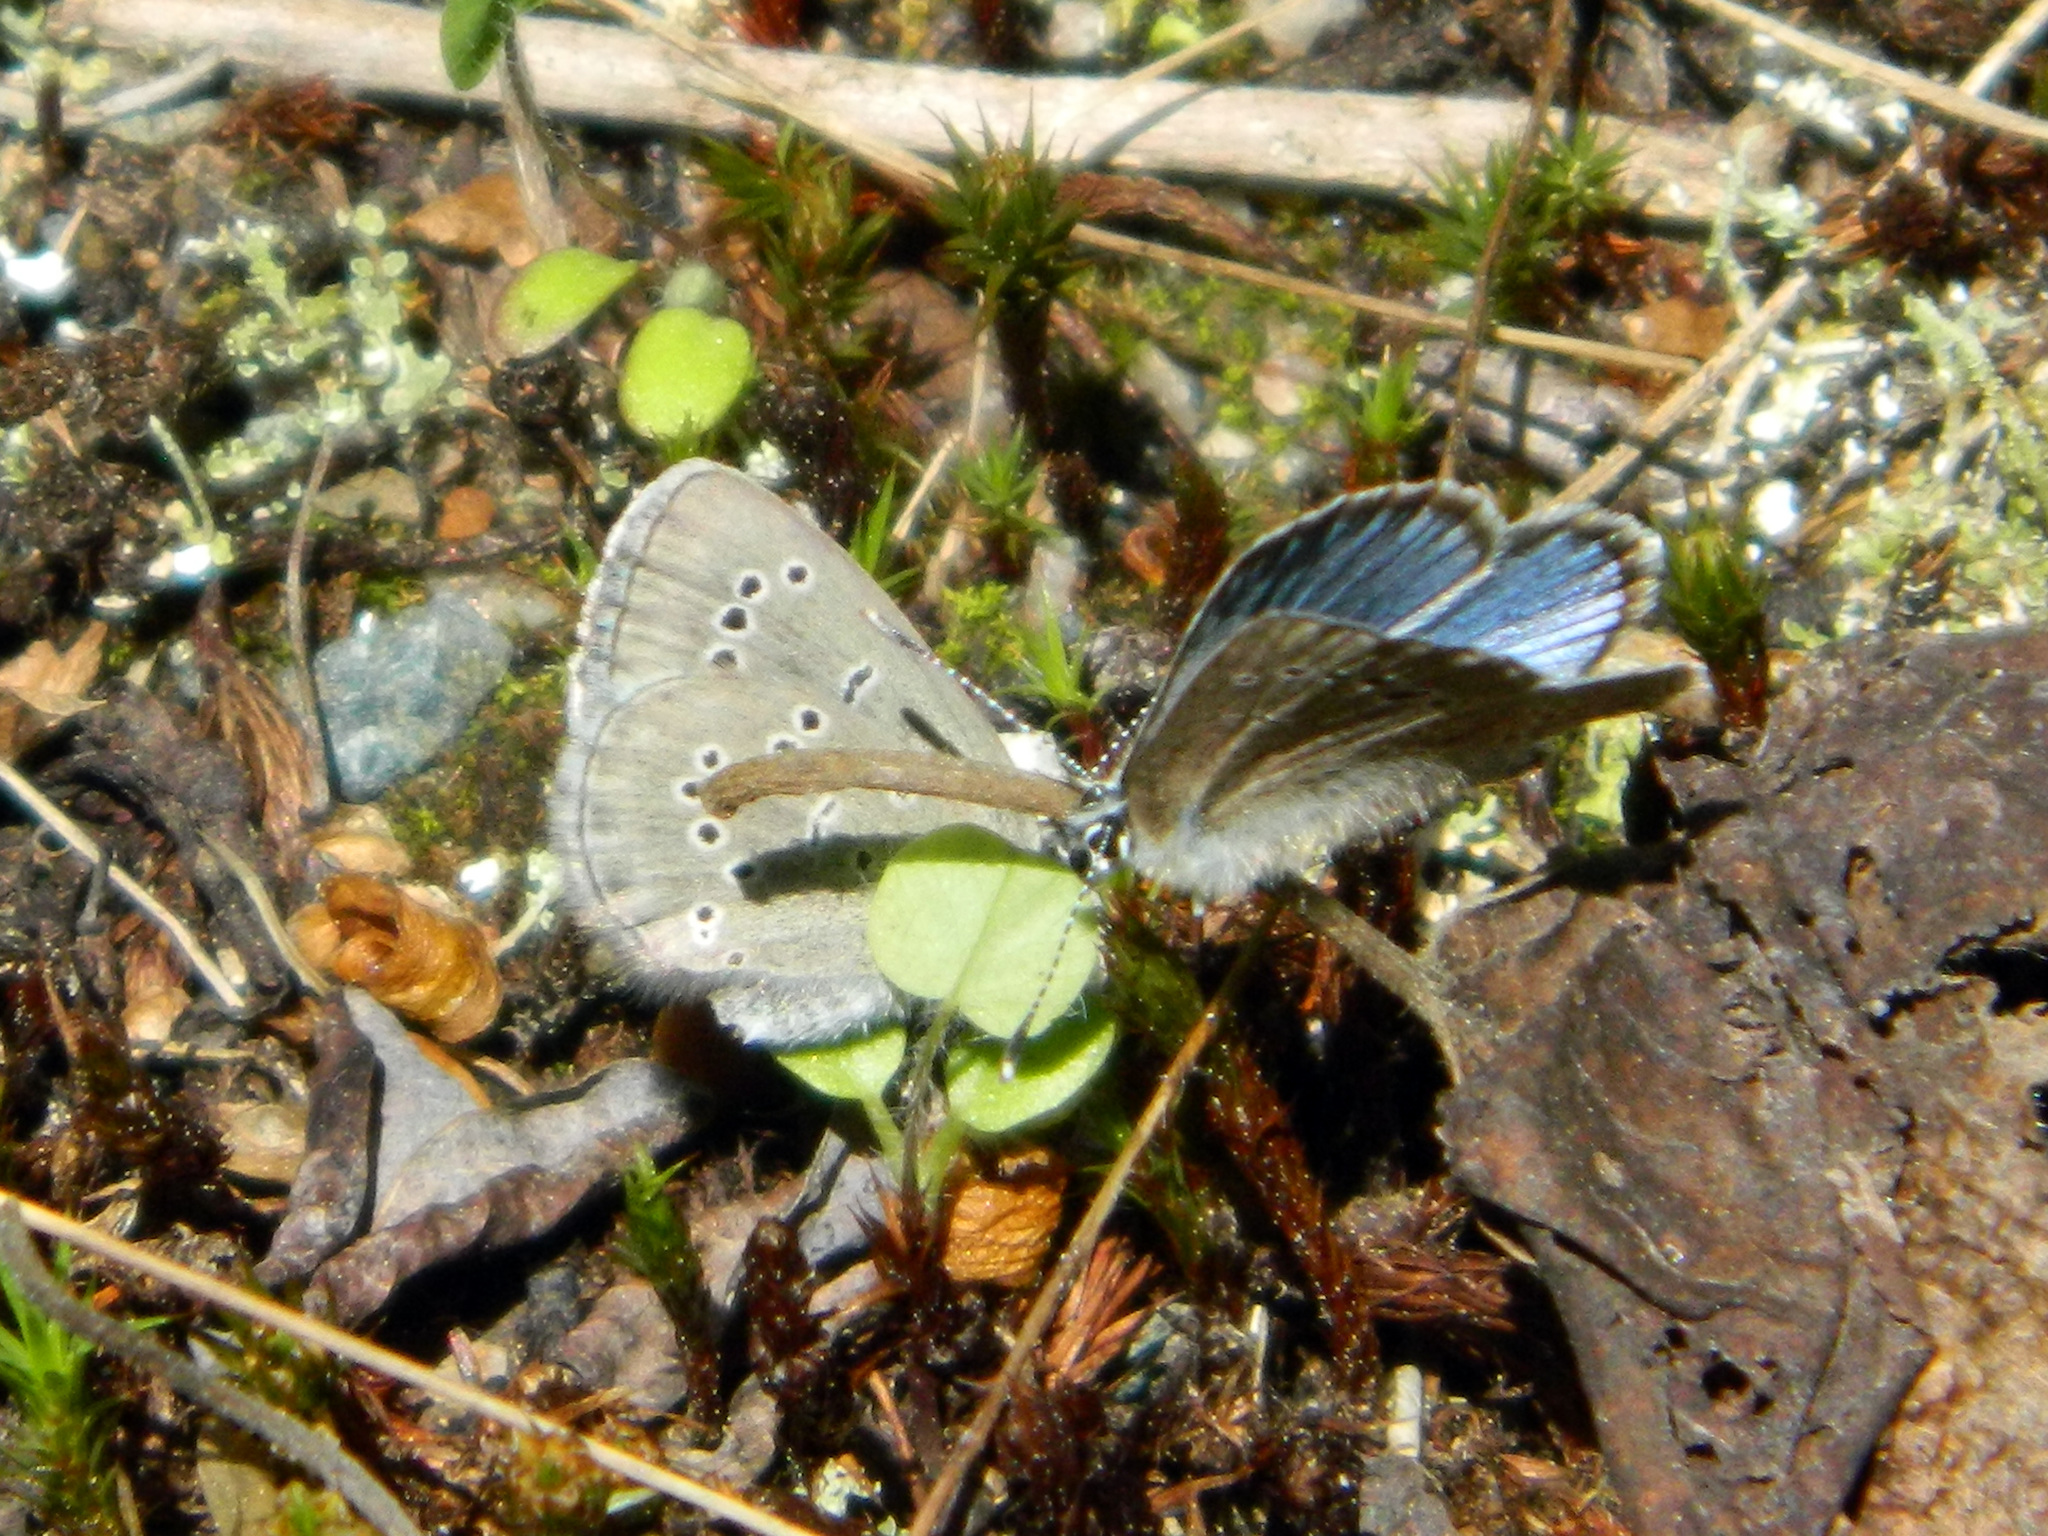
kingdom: Animalia
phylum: Arthropoda
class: Insecta
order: Lepidoptera
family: Lycaenidae
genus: Glaucopsyche
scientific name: Glaucopsyche lygdamus
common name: Silvery blue
